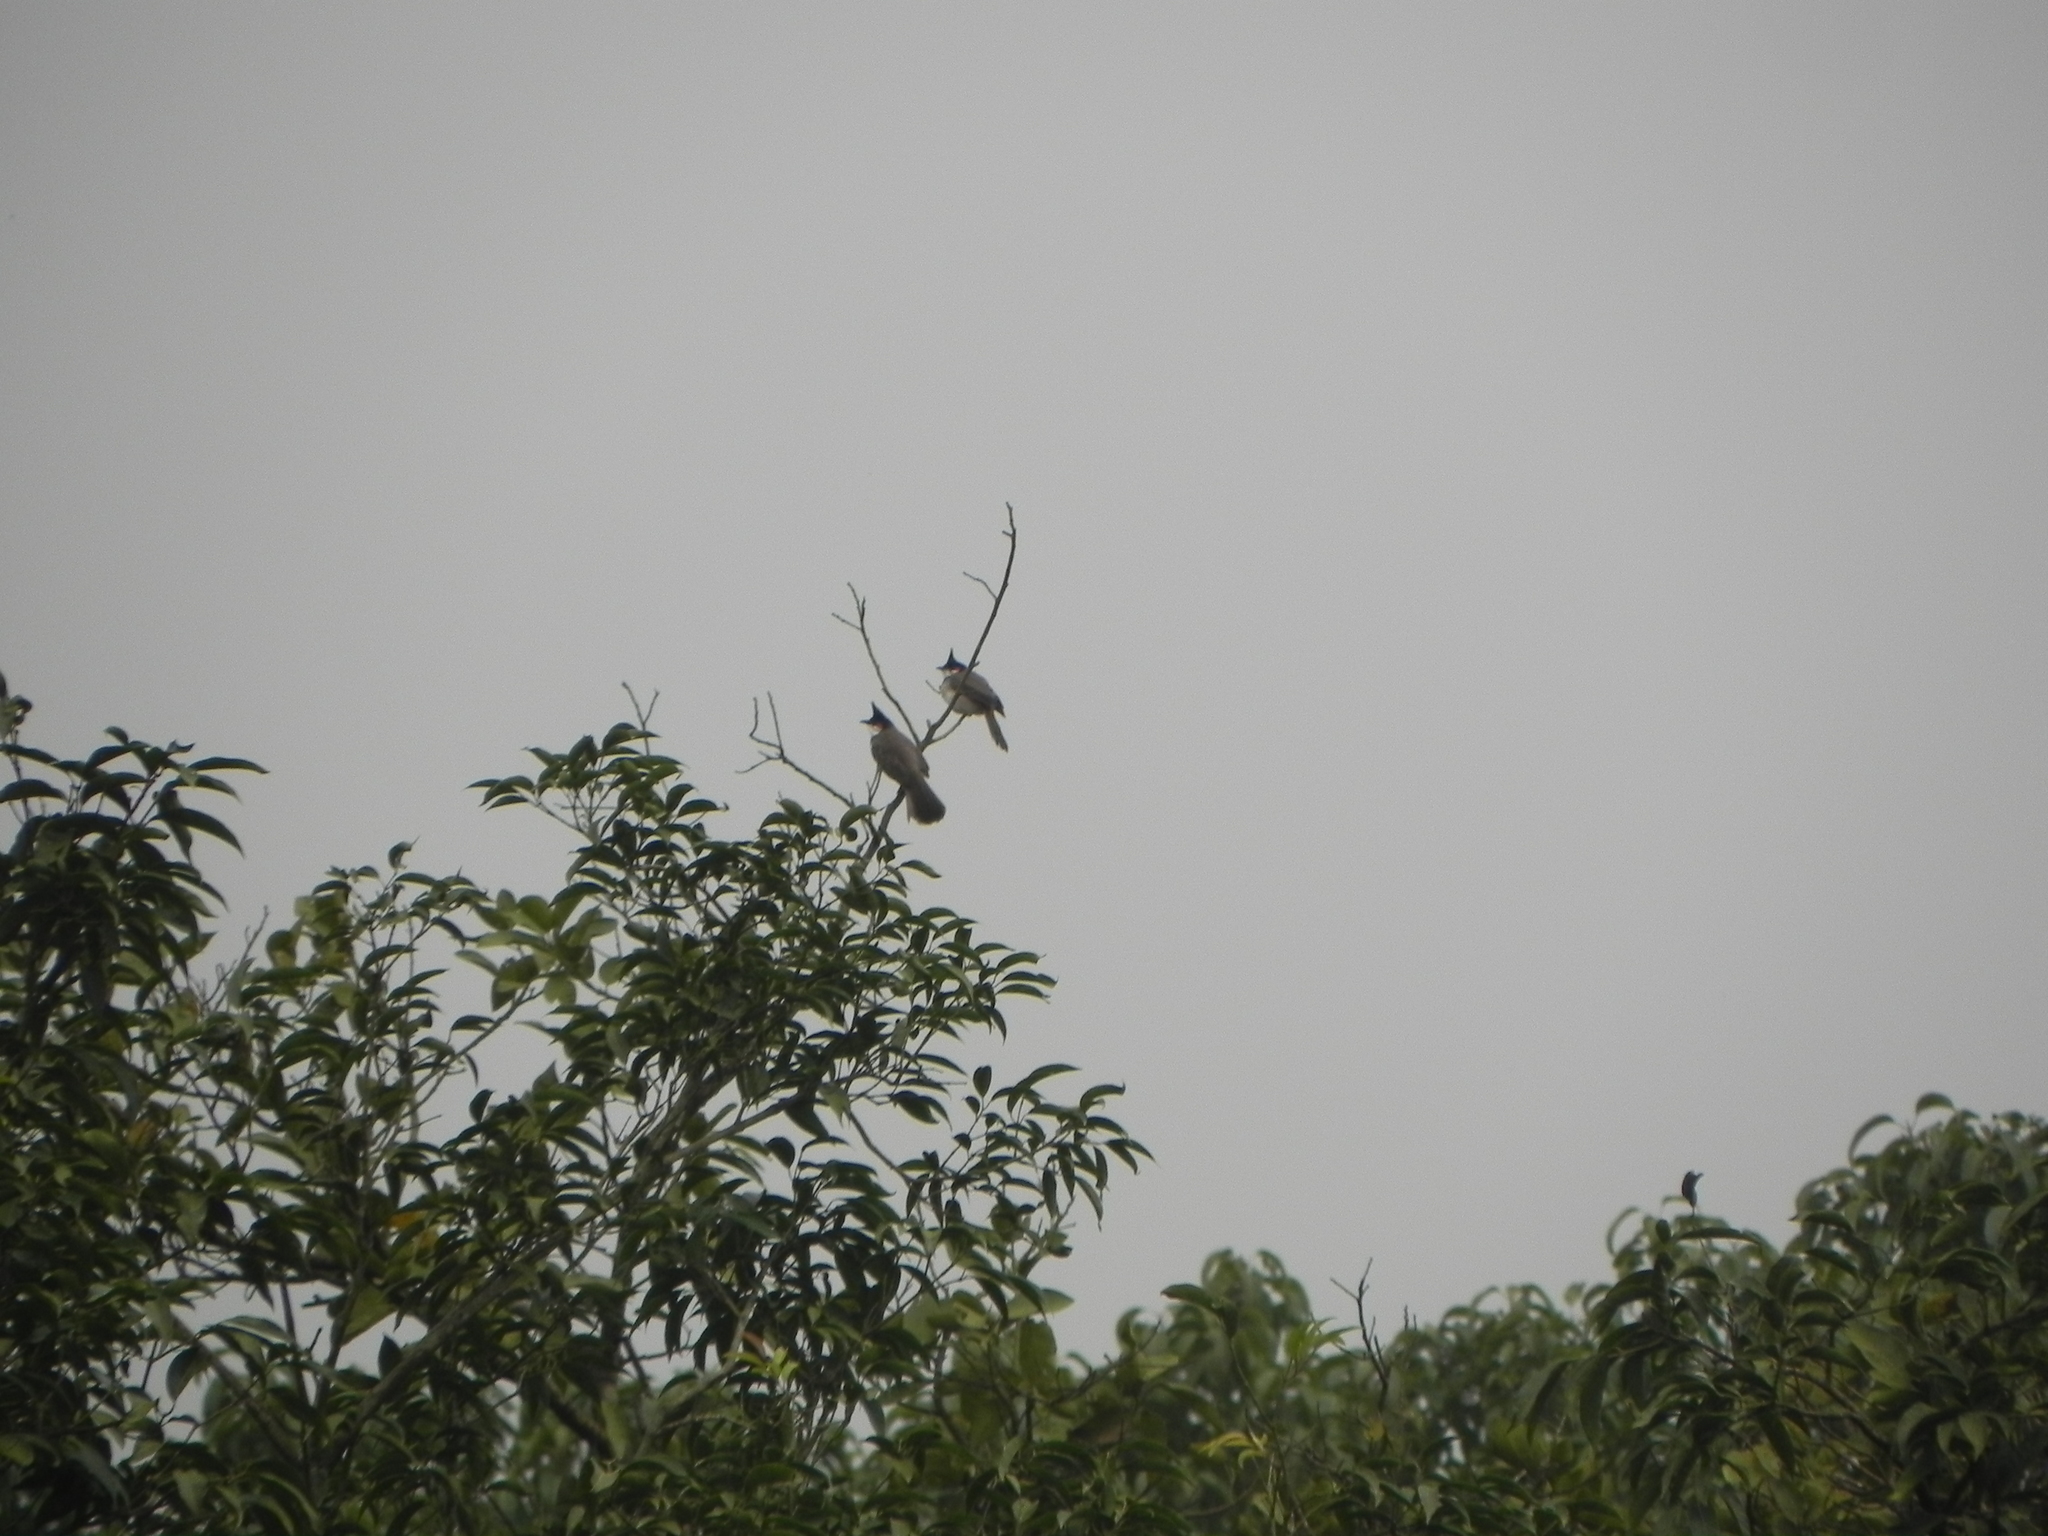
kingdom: Animalia
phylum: Chordata
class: Aves
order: Passeriformes
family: Pycnonotidae
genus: Pycnonotus
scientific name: Pycnonotus jocosus
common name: Red-whiskered bulbul
